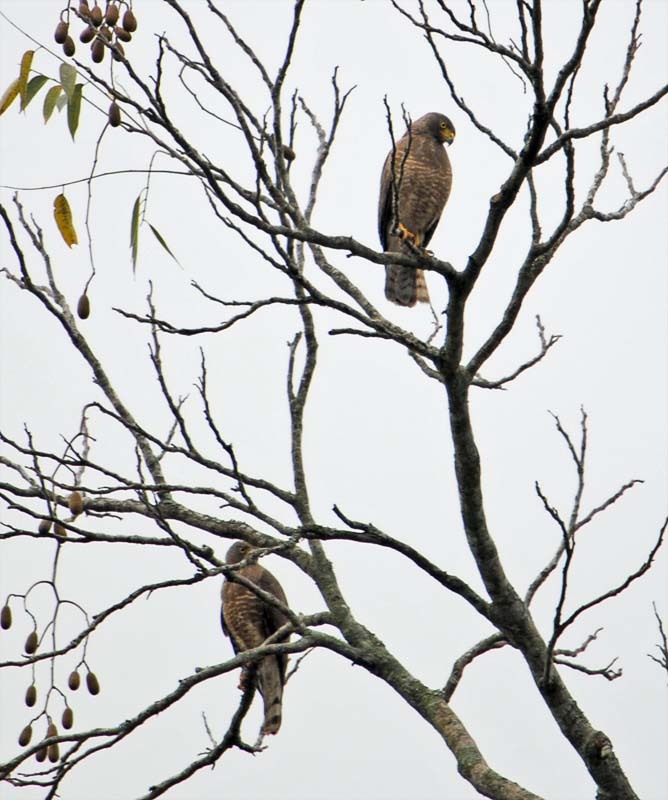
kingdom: Animalia
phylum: Chordata
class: Aves
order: Accipitriformes
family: Accipitridae
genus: Rupornis
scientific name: Rupornis magnirostris
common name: Roadside hawk
